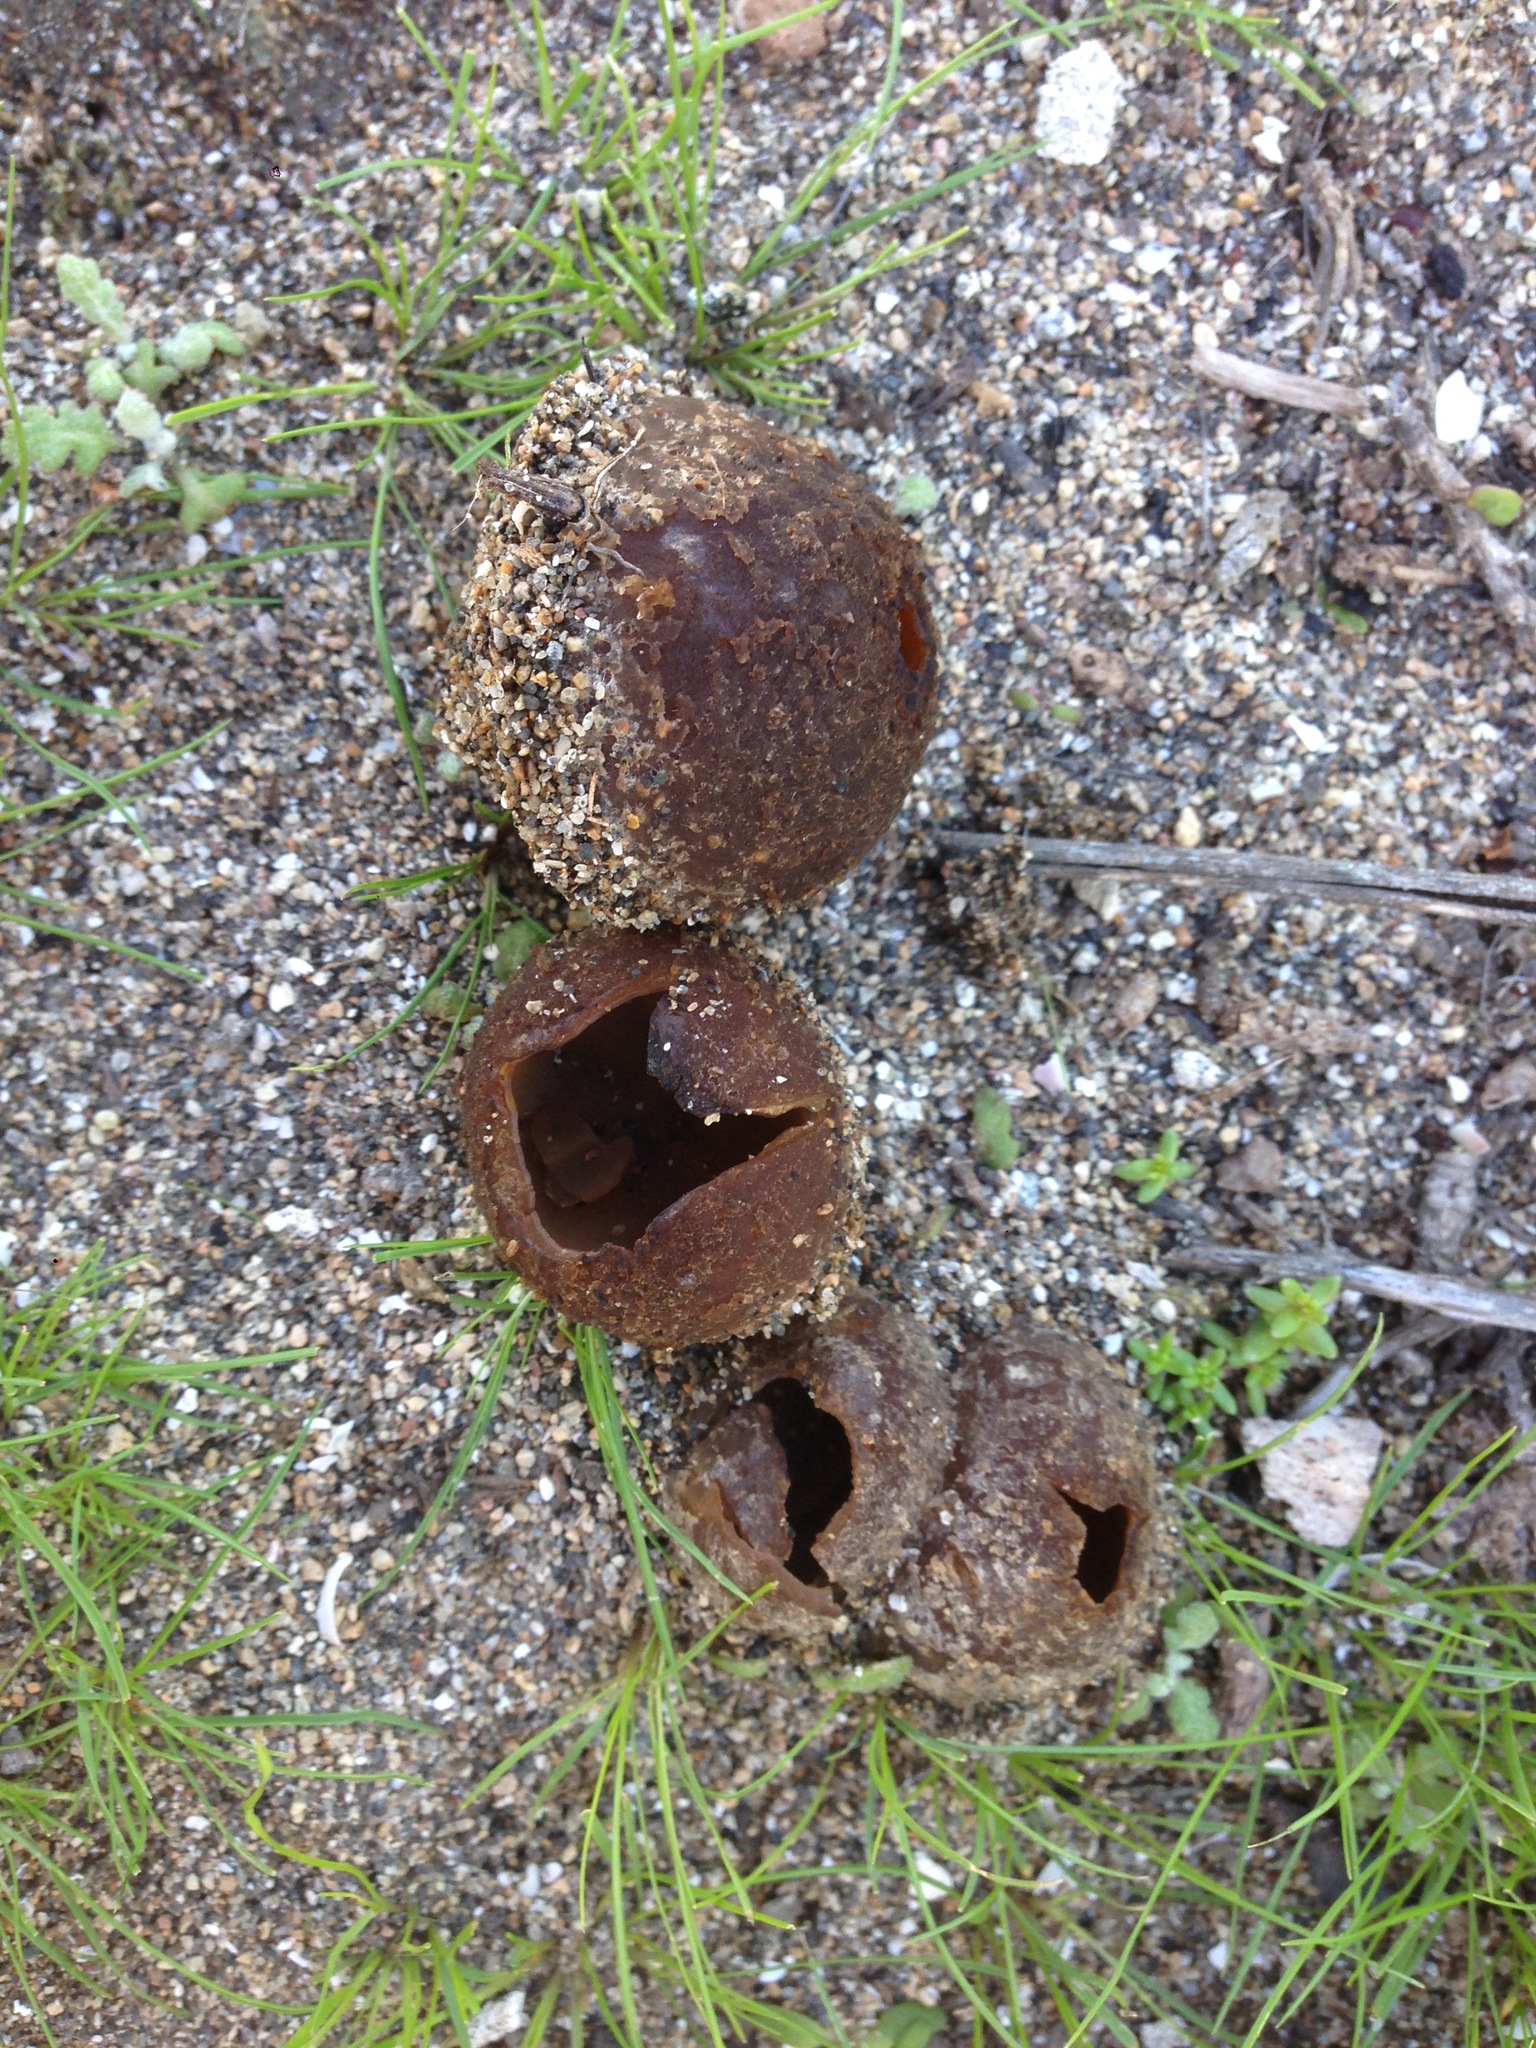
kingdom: Fungi
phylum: Ascomycota
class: Pezizomycetes
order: Pezizales
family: Pezizaceae
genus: Peziza
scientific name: Peziza ammophila
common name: Dune cup
